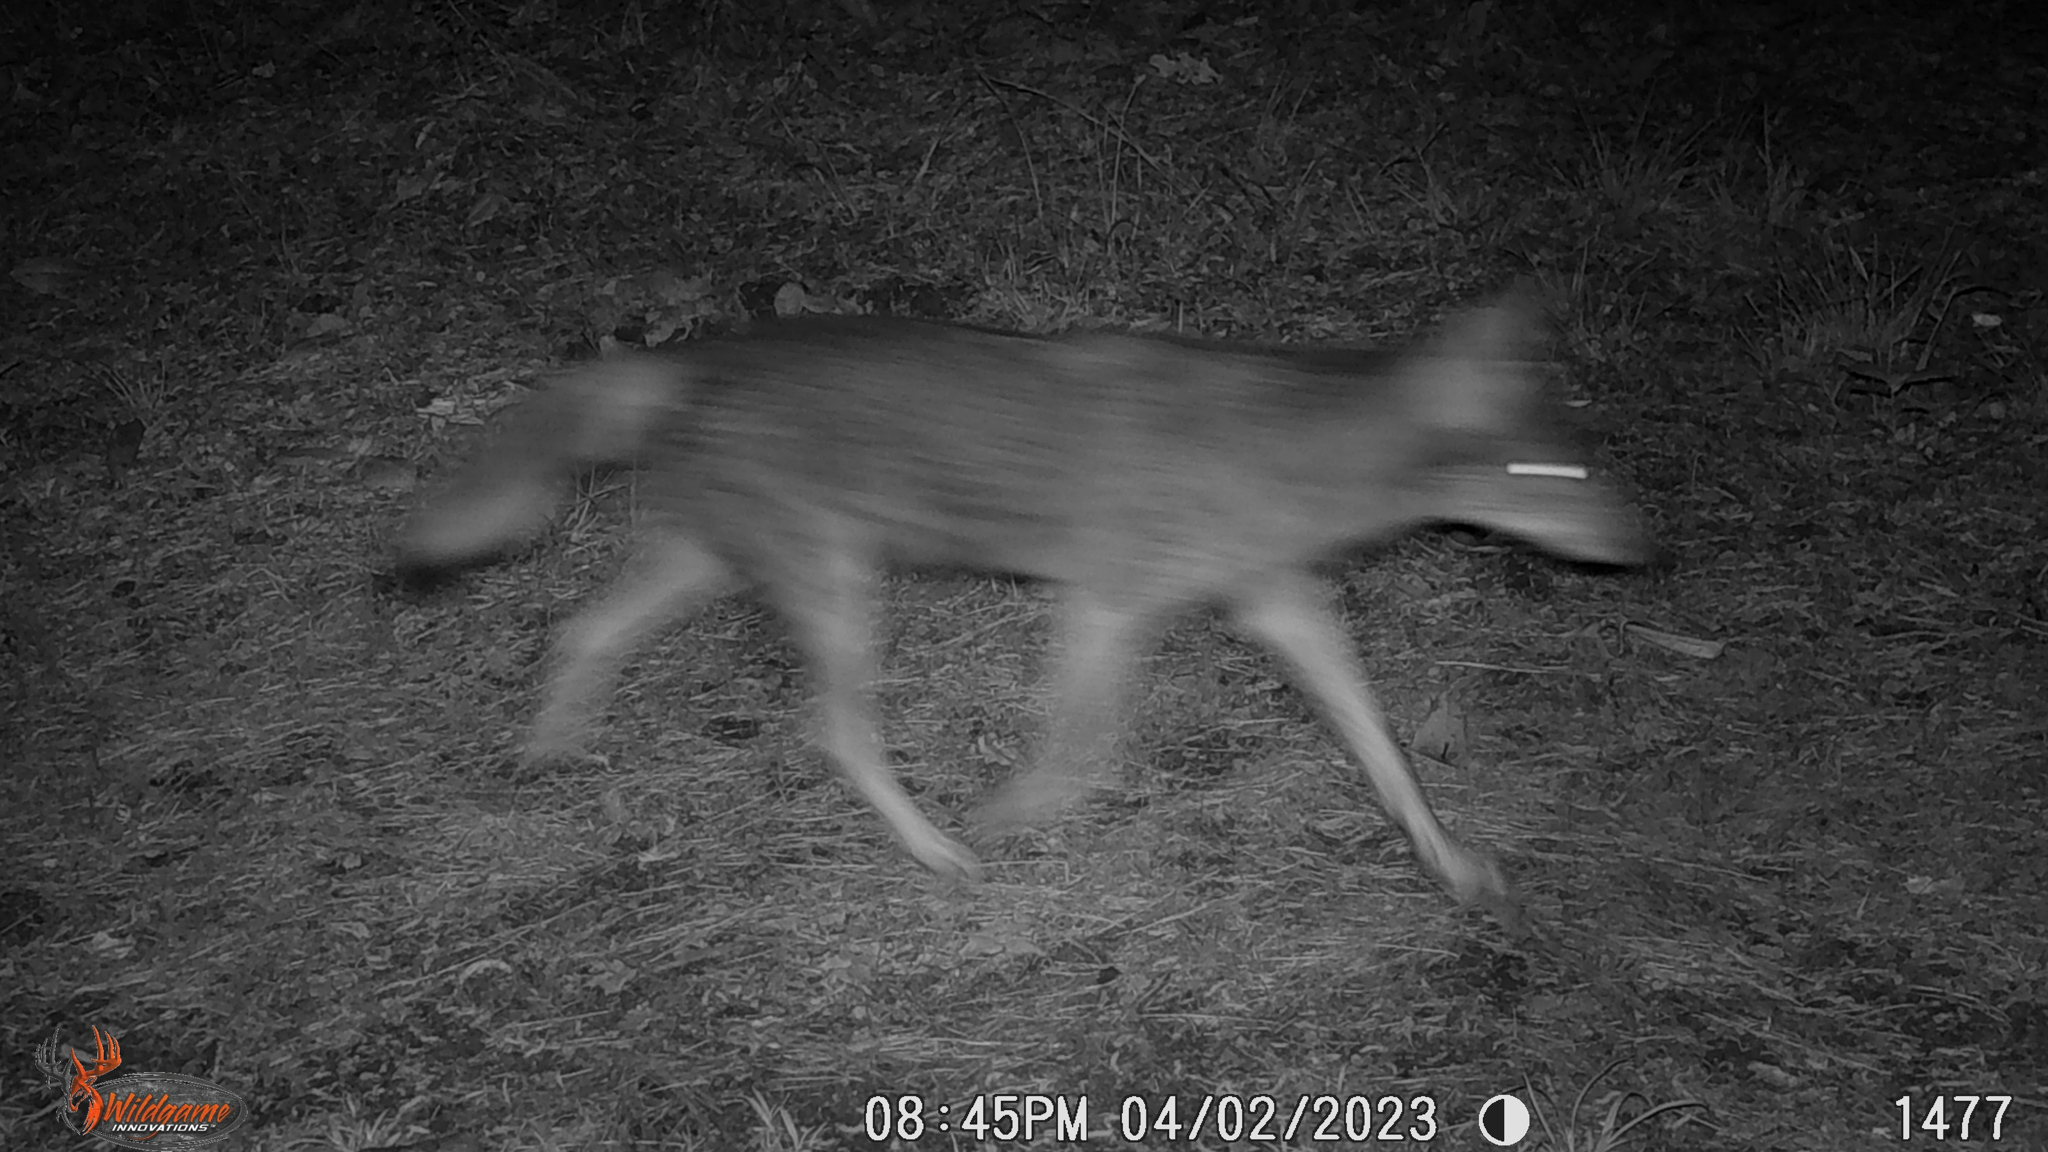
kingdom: Animalia
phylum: Chordata
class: Mammalia
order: Carnivora
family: Canidae
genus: Canis
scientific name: Canis latrans
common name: Coyote
